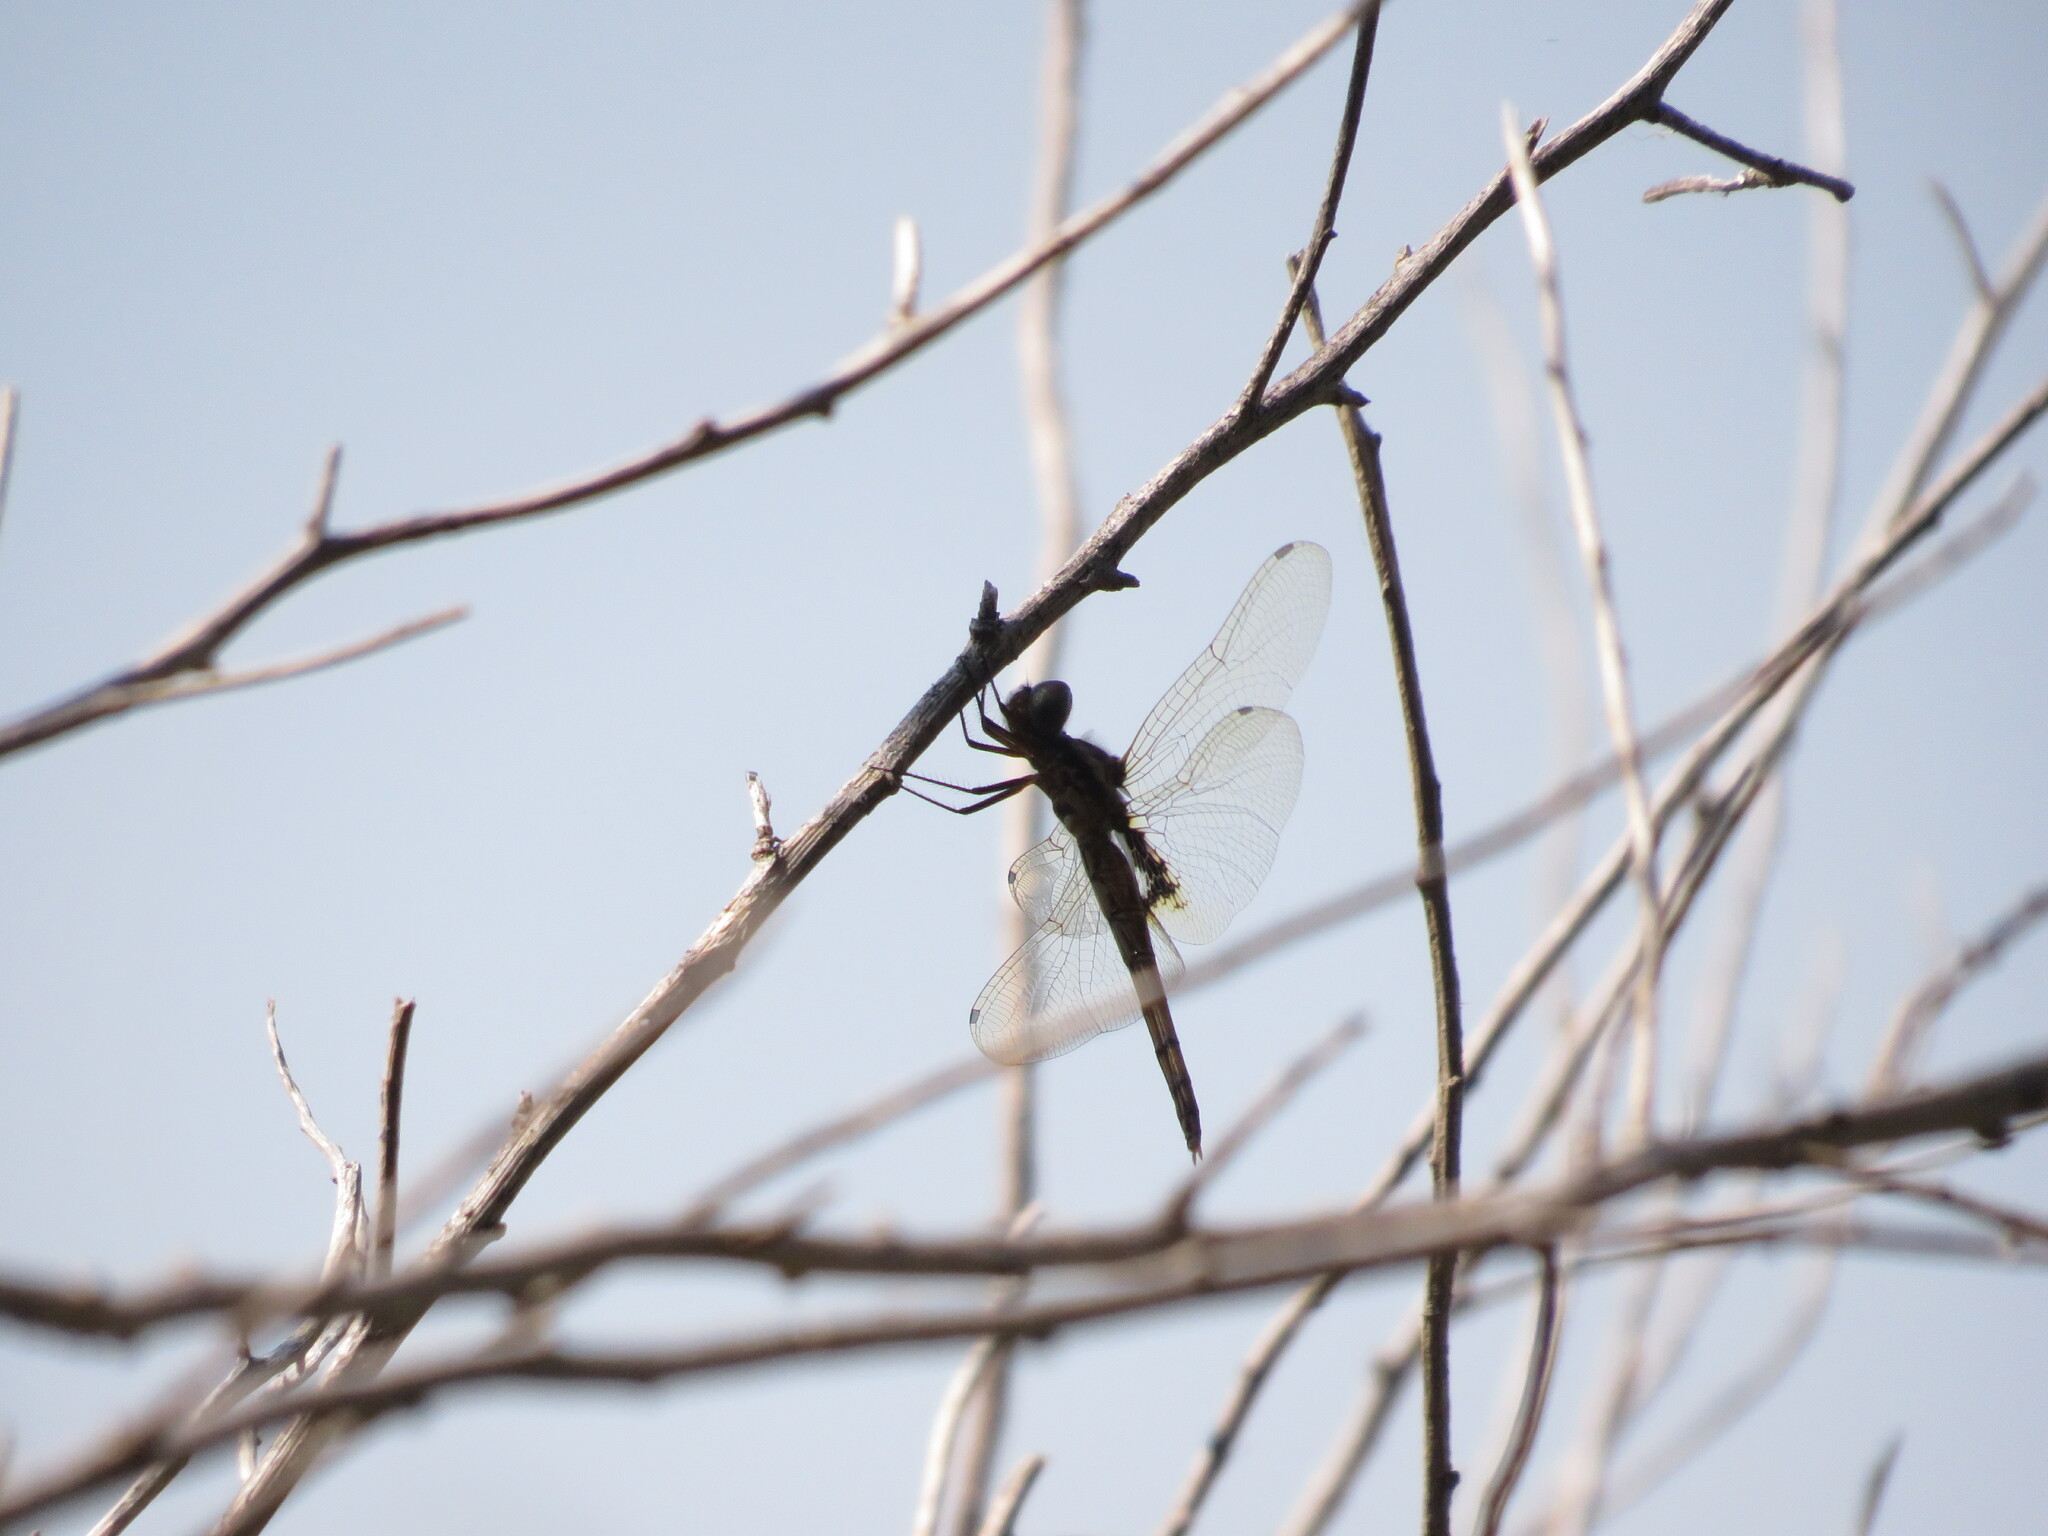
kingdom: Animalia
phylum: Arthropoda
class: Insecta
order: Odonata
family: Libellulidae
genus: Miathyria
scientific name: Miathyria marcella
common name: Hyacinth glider
